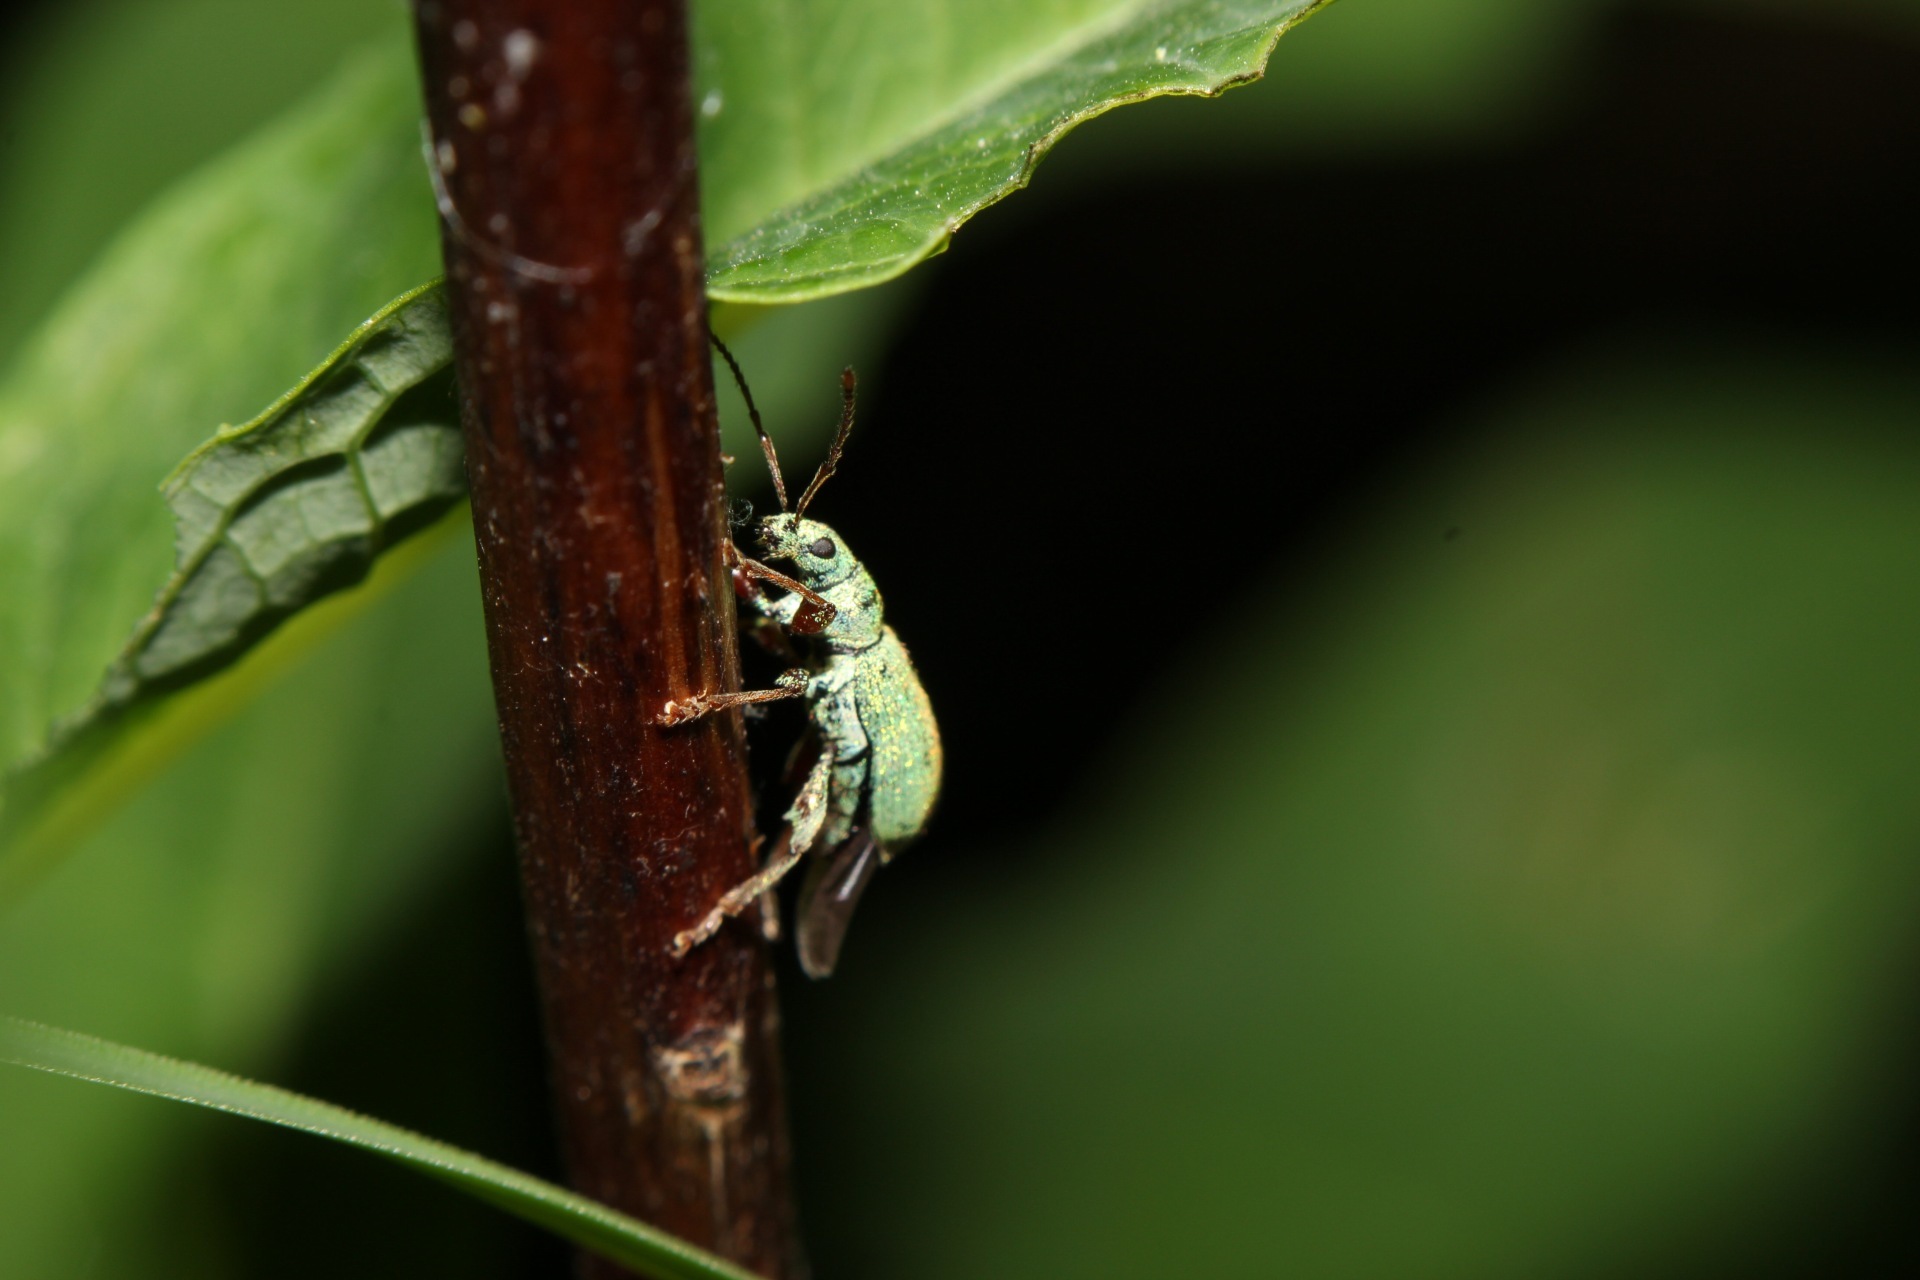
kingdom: Animalia
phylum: Arthropoda
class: Insecta
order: Coleoptera
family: Curculionidae
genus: Phyllobius
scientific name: Phyllobius argentatus
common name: Silver-green leaf weevil
